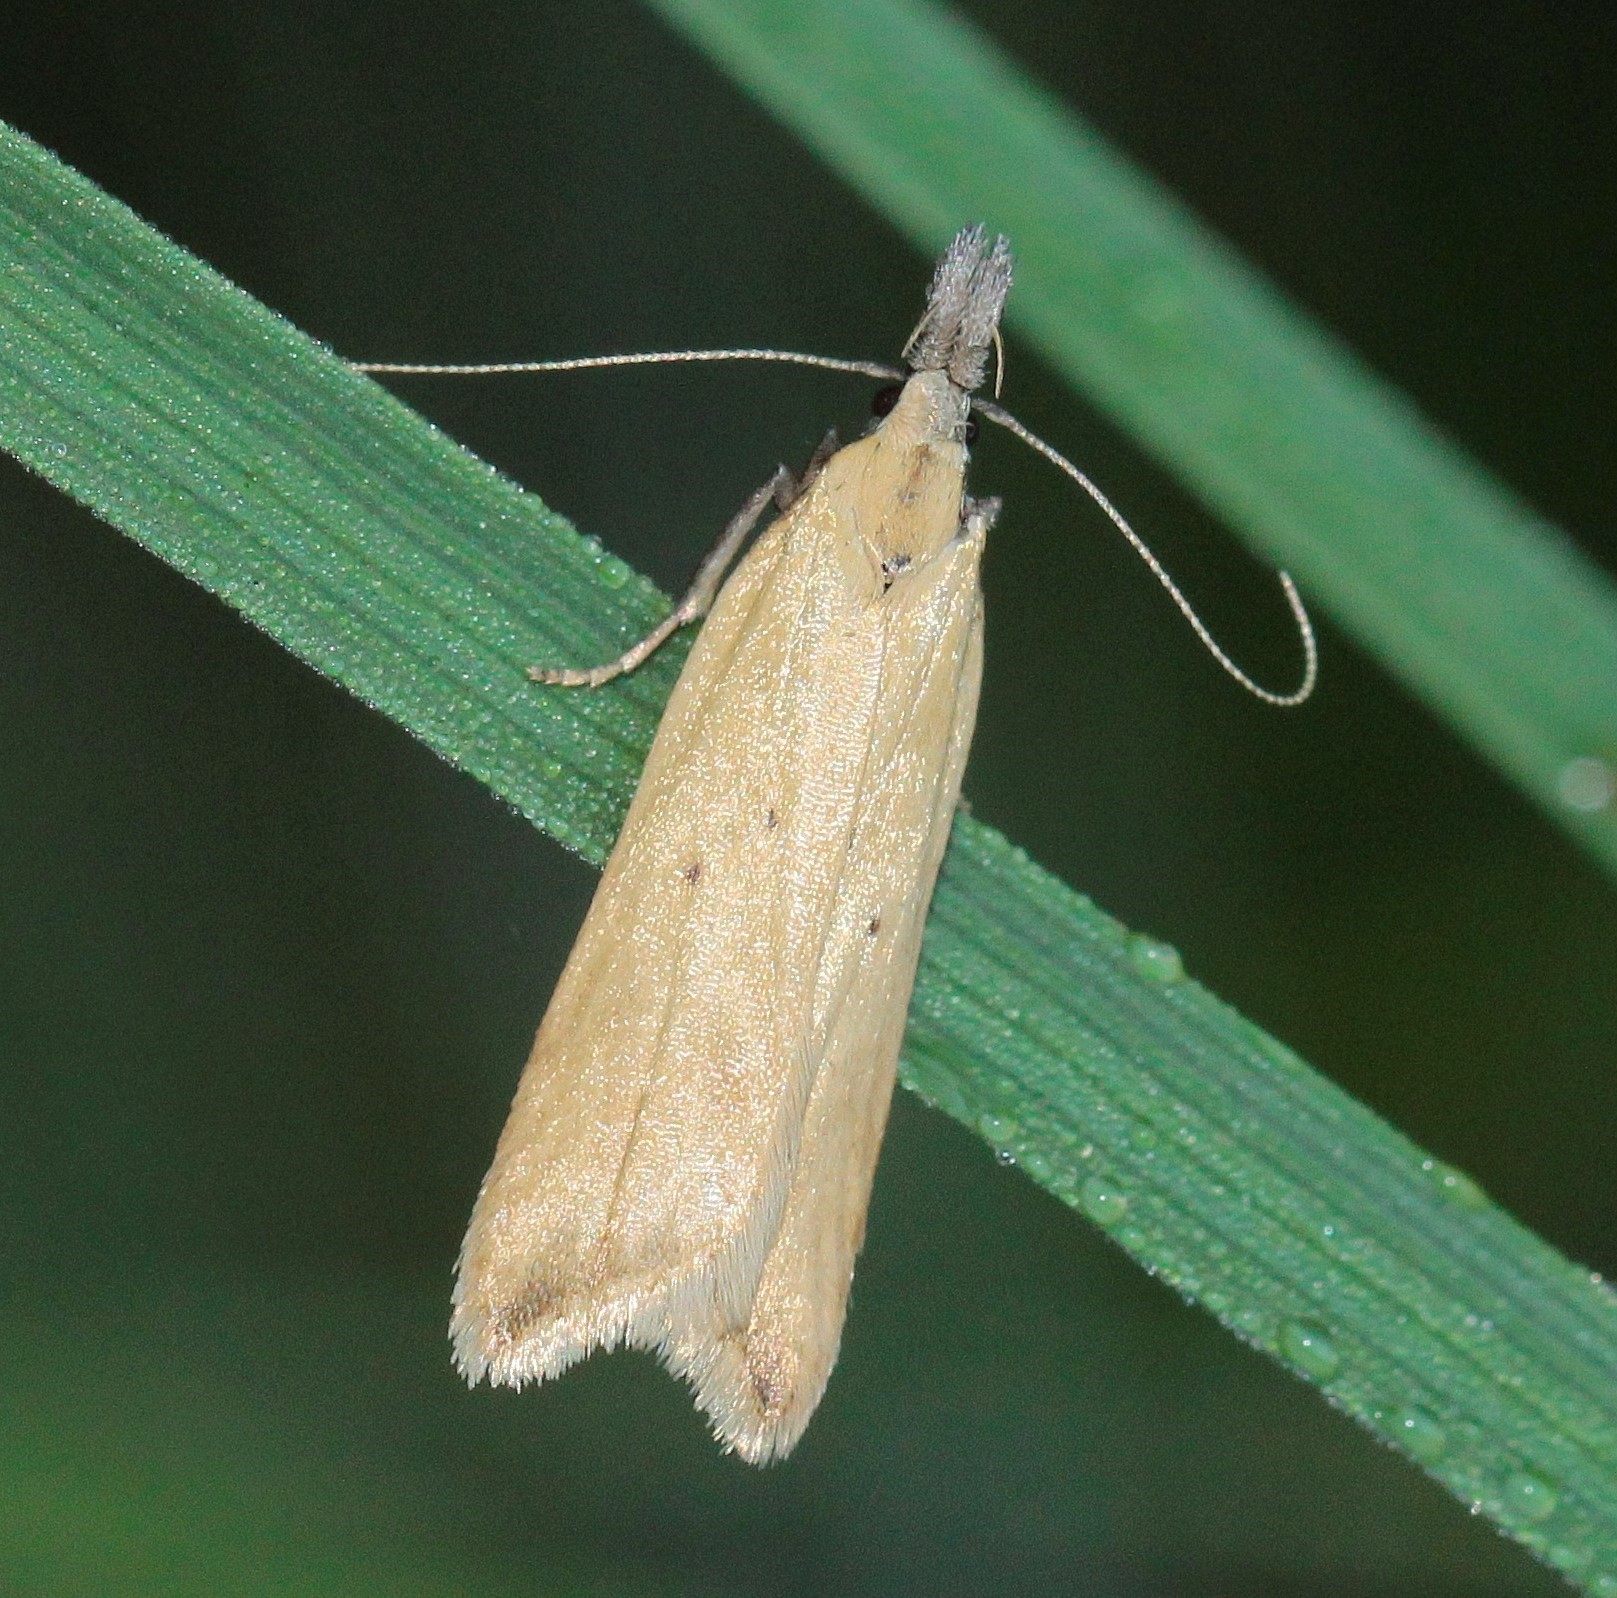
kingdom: Animalia
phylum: Arthropoda
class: Insecta
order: Lepidoptera
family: Gelechiidae
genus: Dichomeris
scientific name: Dichomeris limosellus
